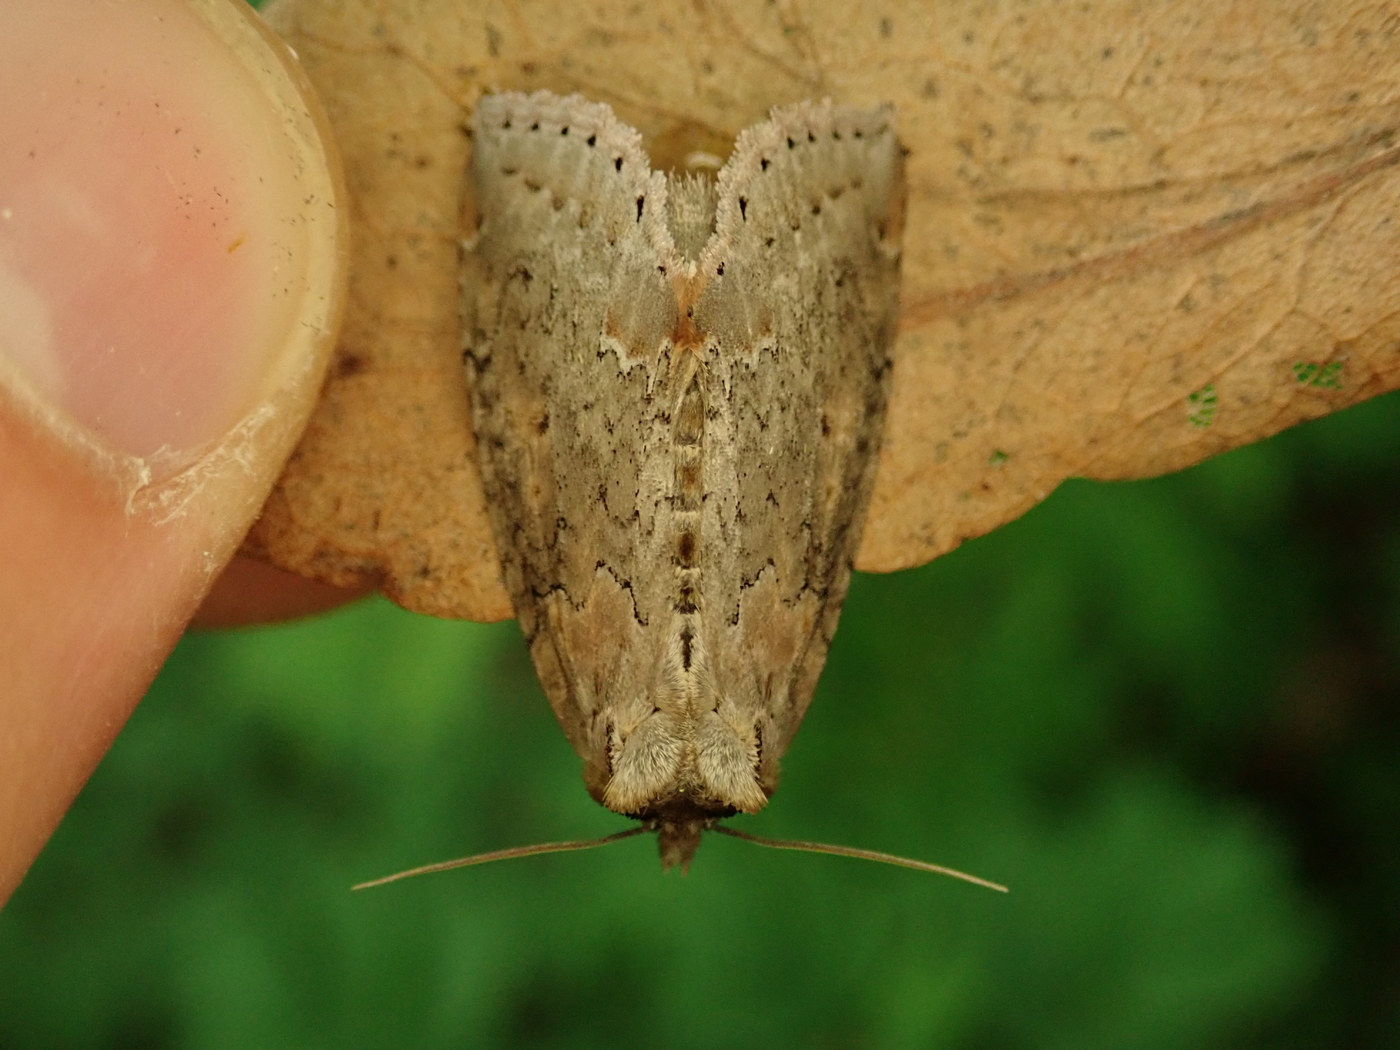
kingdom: Animalia
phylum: Arthropoda
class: Insecta
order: Lepidoptera
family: Drepanidae
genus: Pseudothyatira
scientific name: Pseudothyatira cymatophoroides
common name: Tufted thyatirid moth
